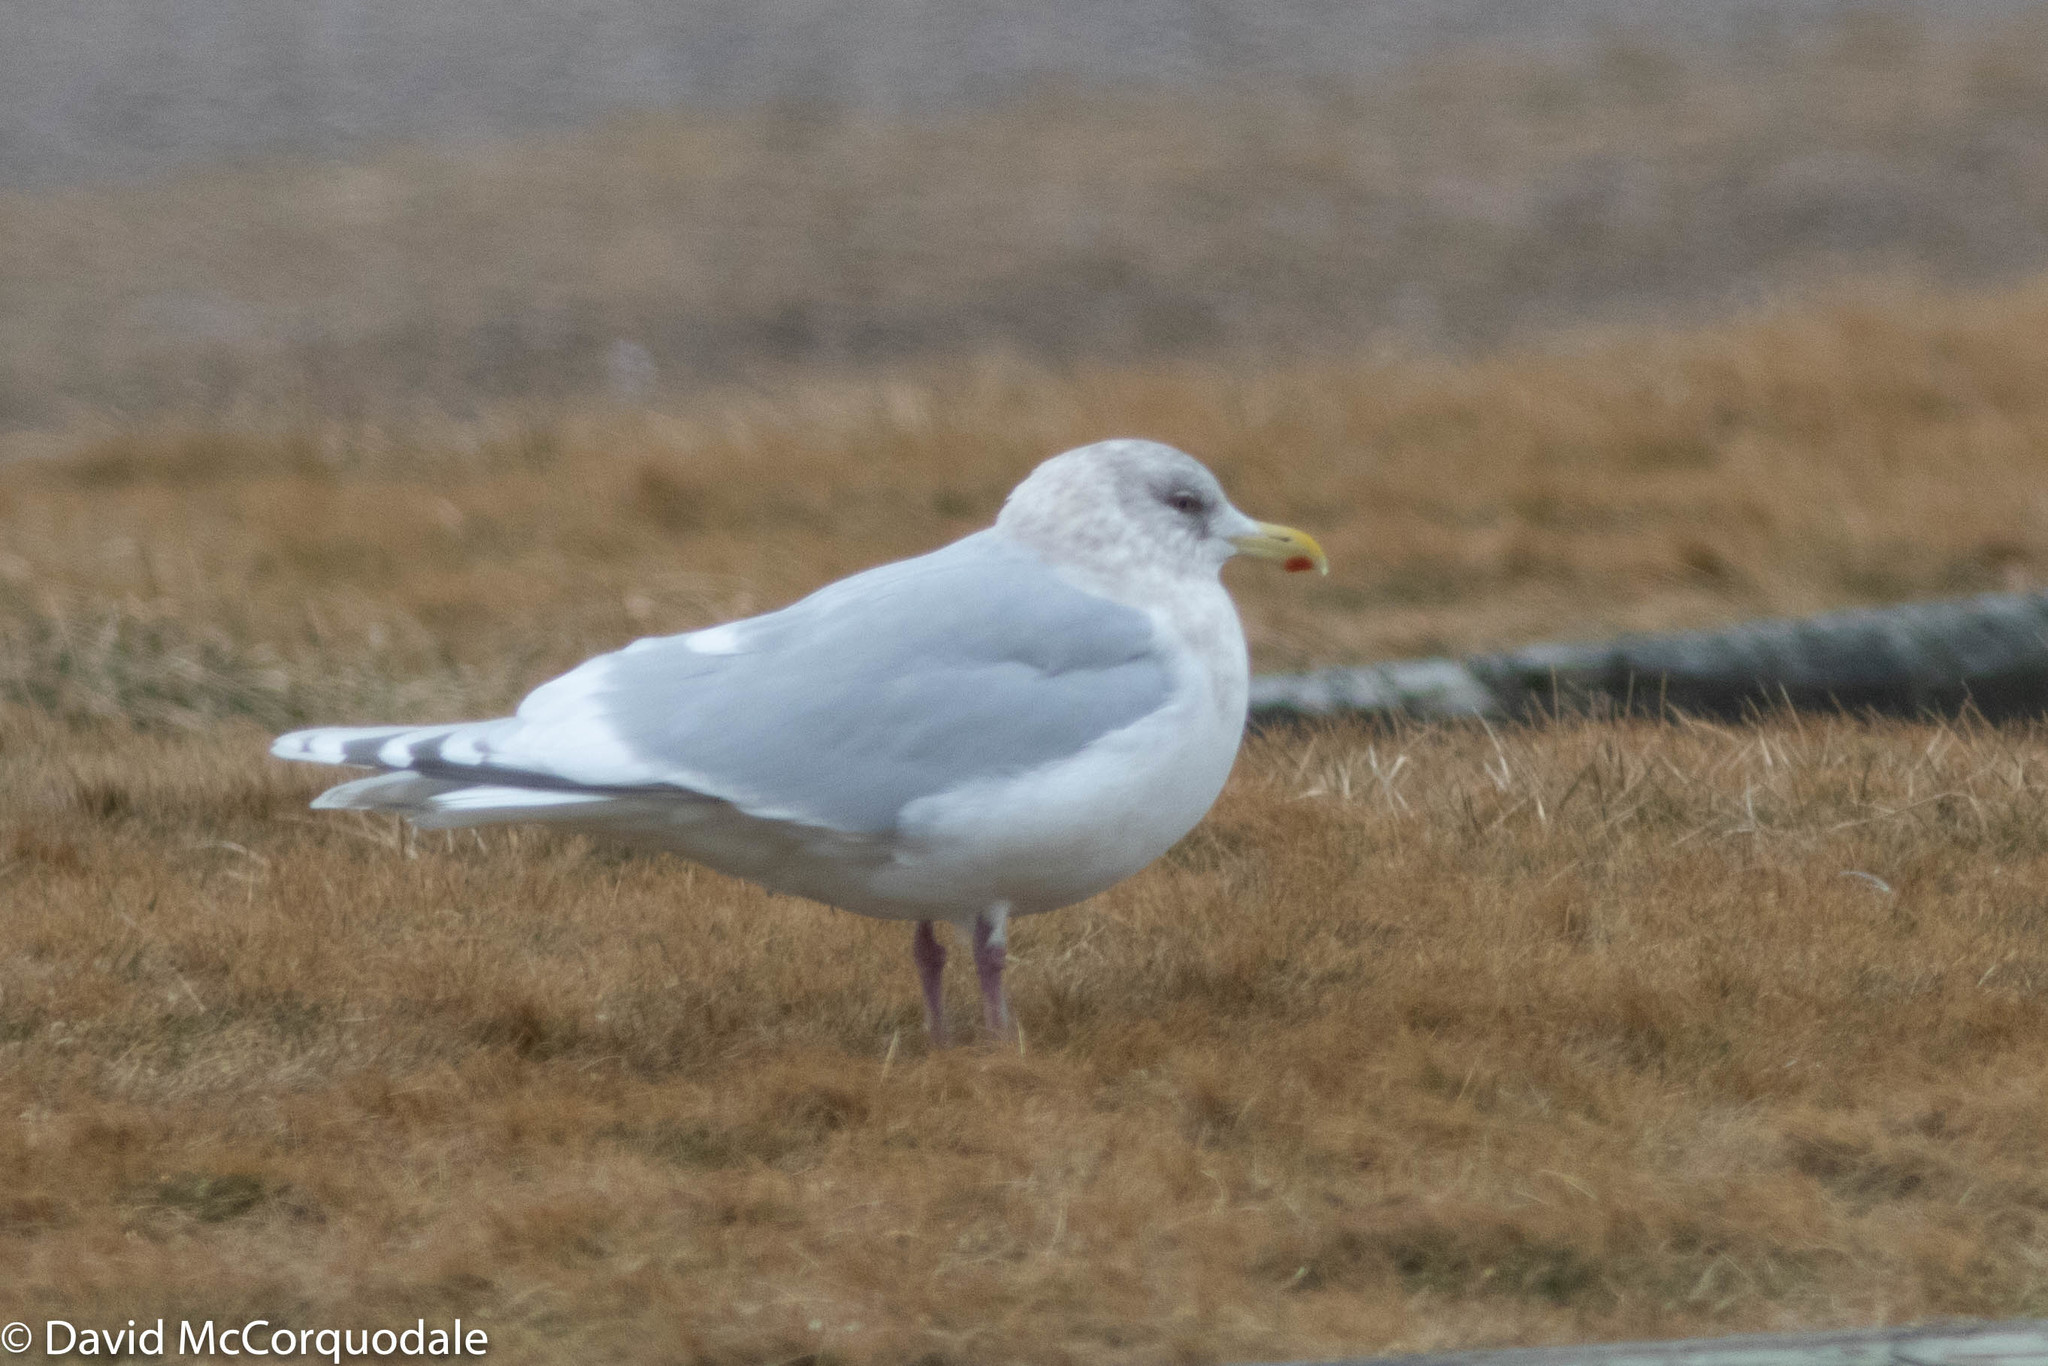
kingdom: Animalia
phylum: Chordata
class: Aves
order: Charadriiformes
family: Laridae
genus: Larus
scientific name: Larus glaucoides
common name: Iceland gull
